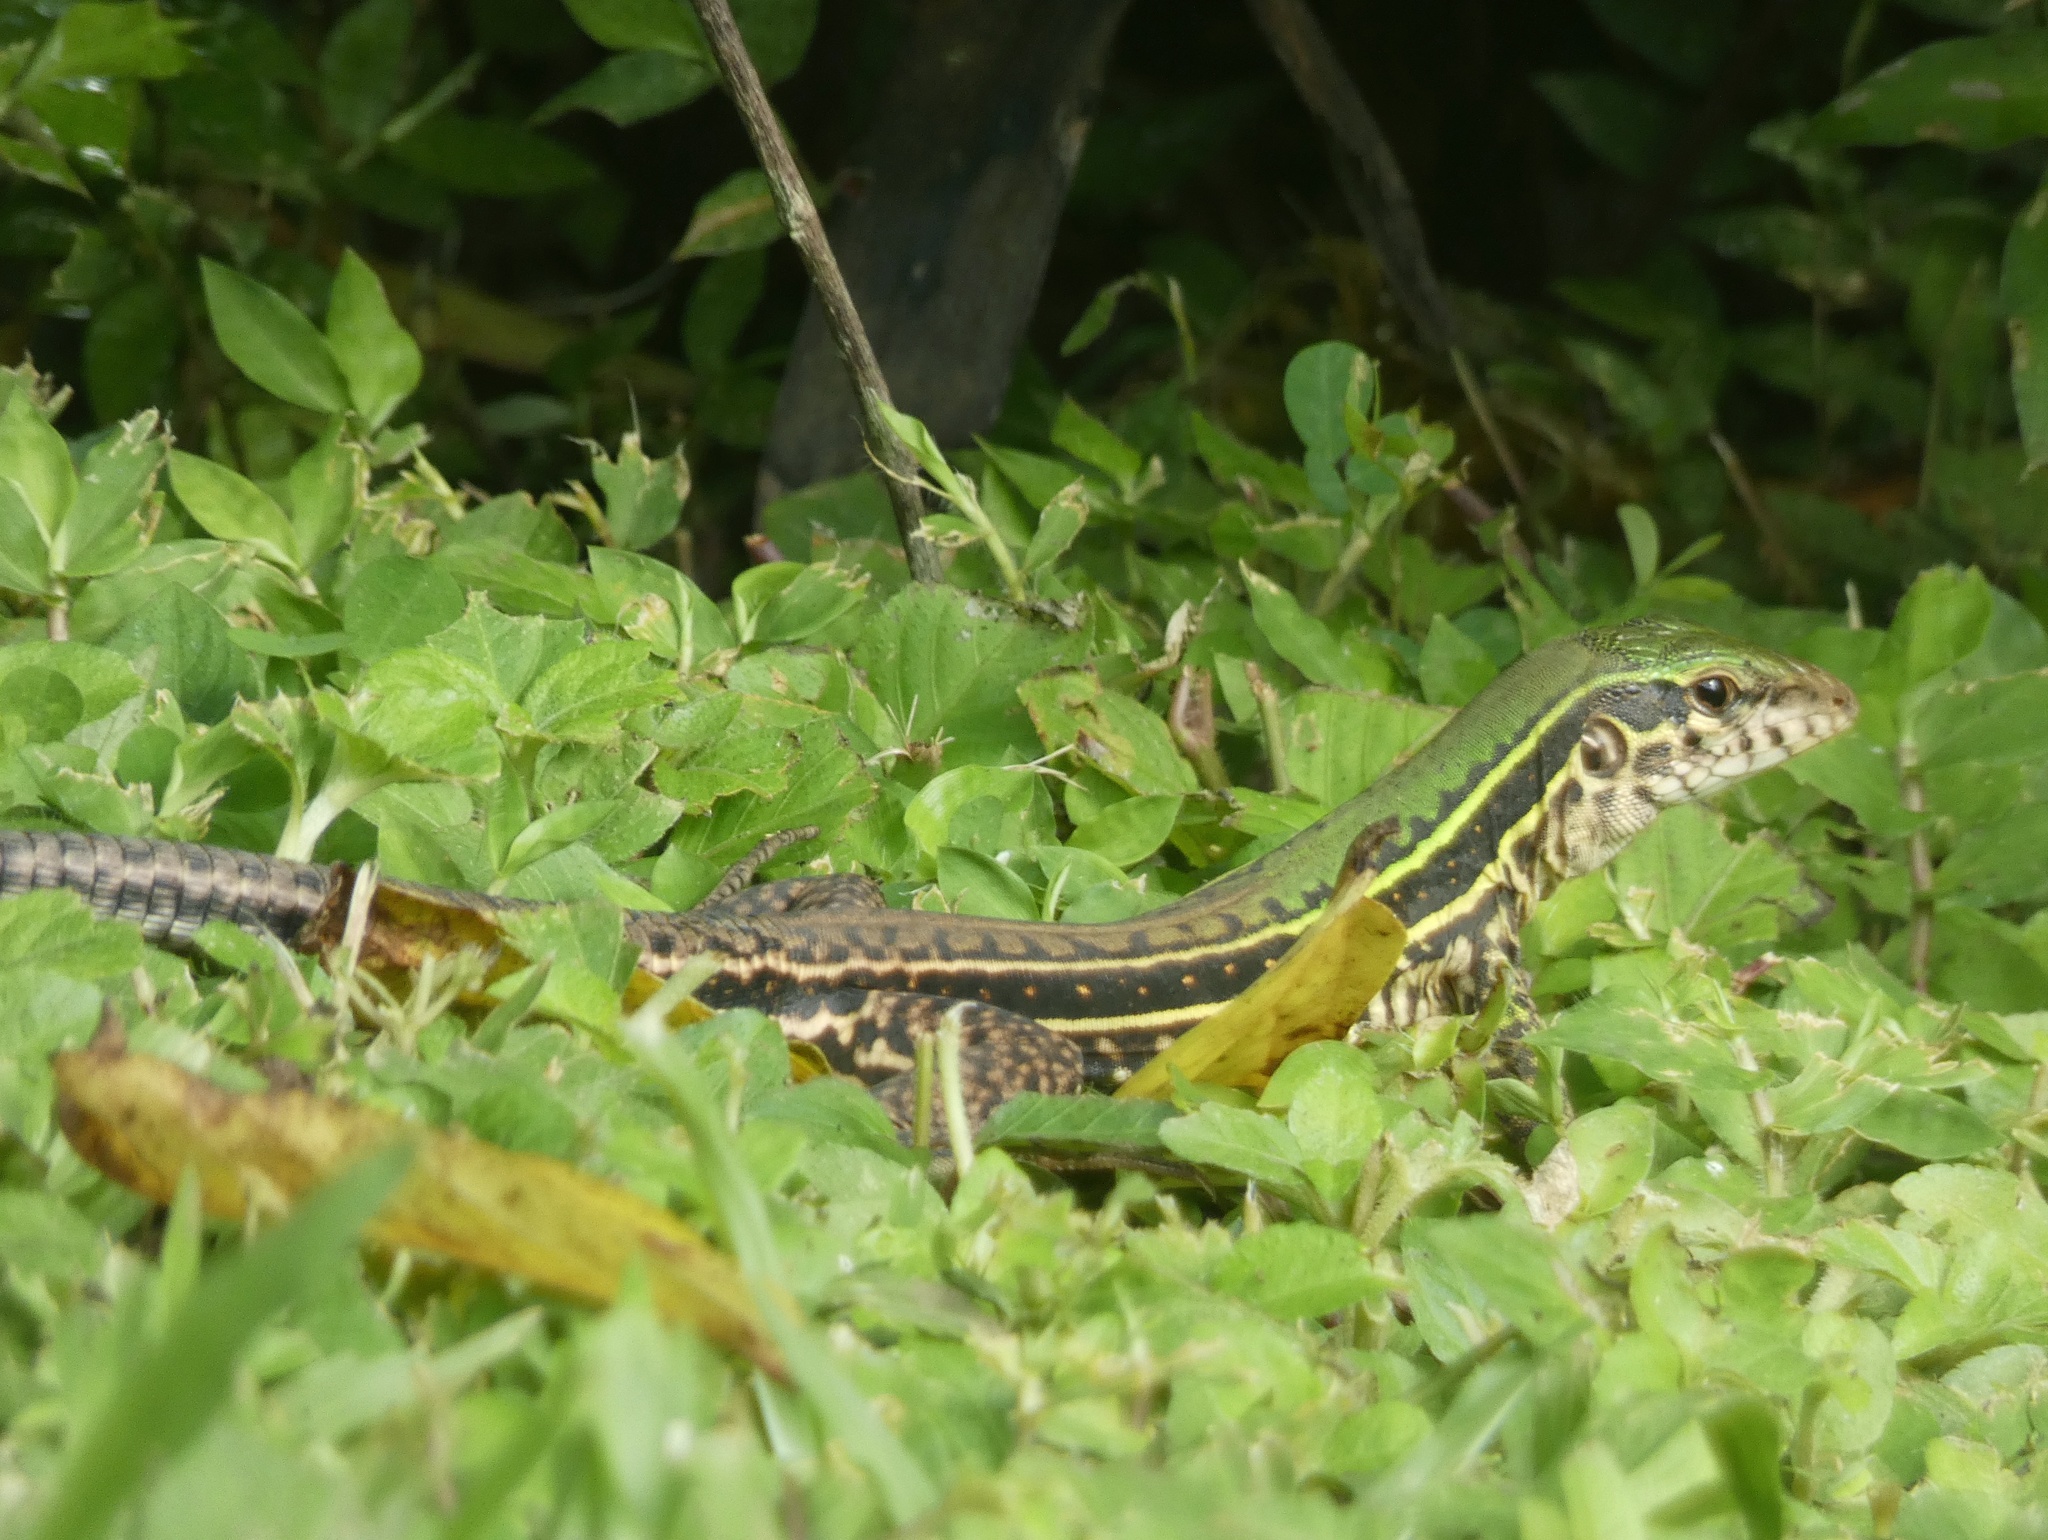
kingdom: Animalia
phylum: Chordata
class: Squamata
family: Teiidae
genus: Ameiva
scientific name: Ameiva praesignis
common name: Giant ameiva
